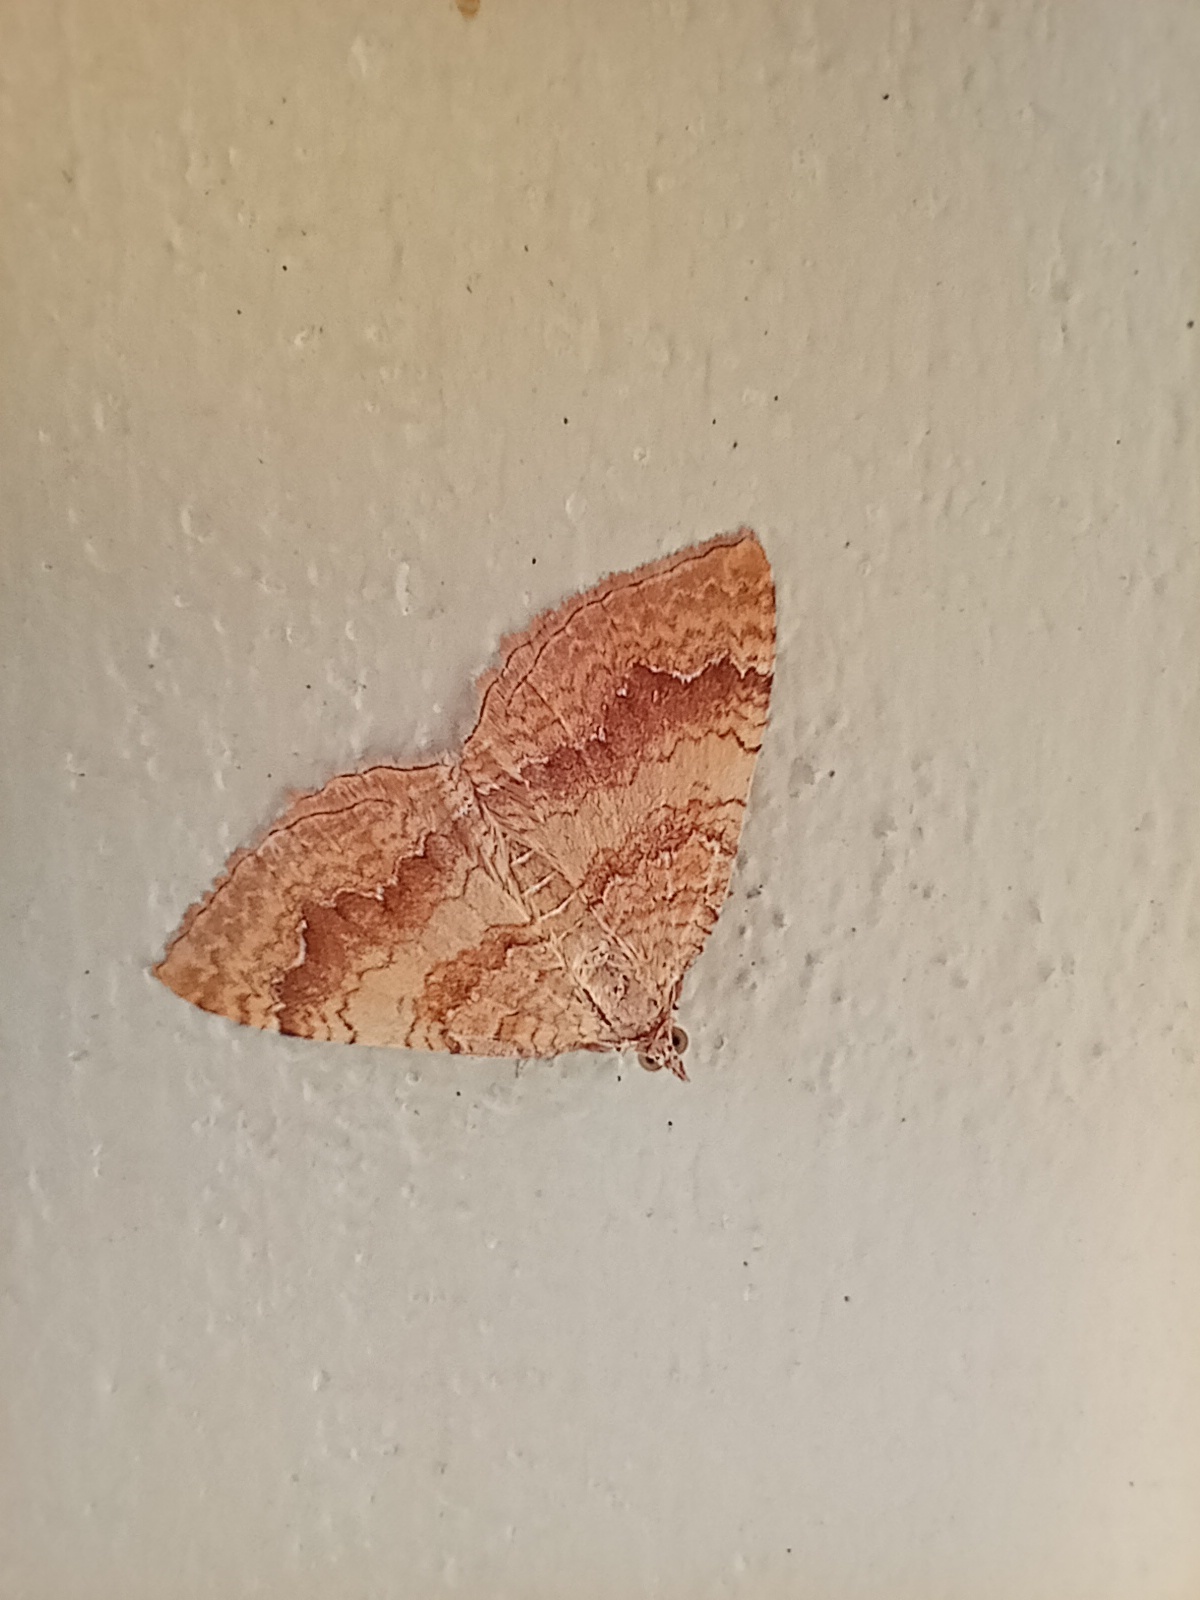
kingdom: Animalia
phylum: Arthropoda
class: Insecta
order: Lepidoptera
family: Geometridae
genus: Camptogramma
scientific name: Camptogramma bilineata
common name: Yellow shell
